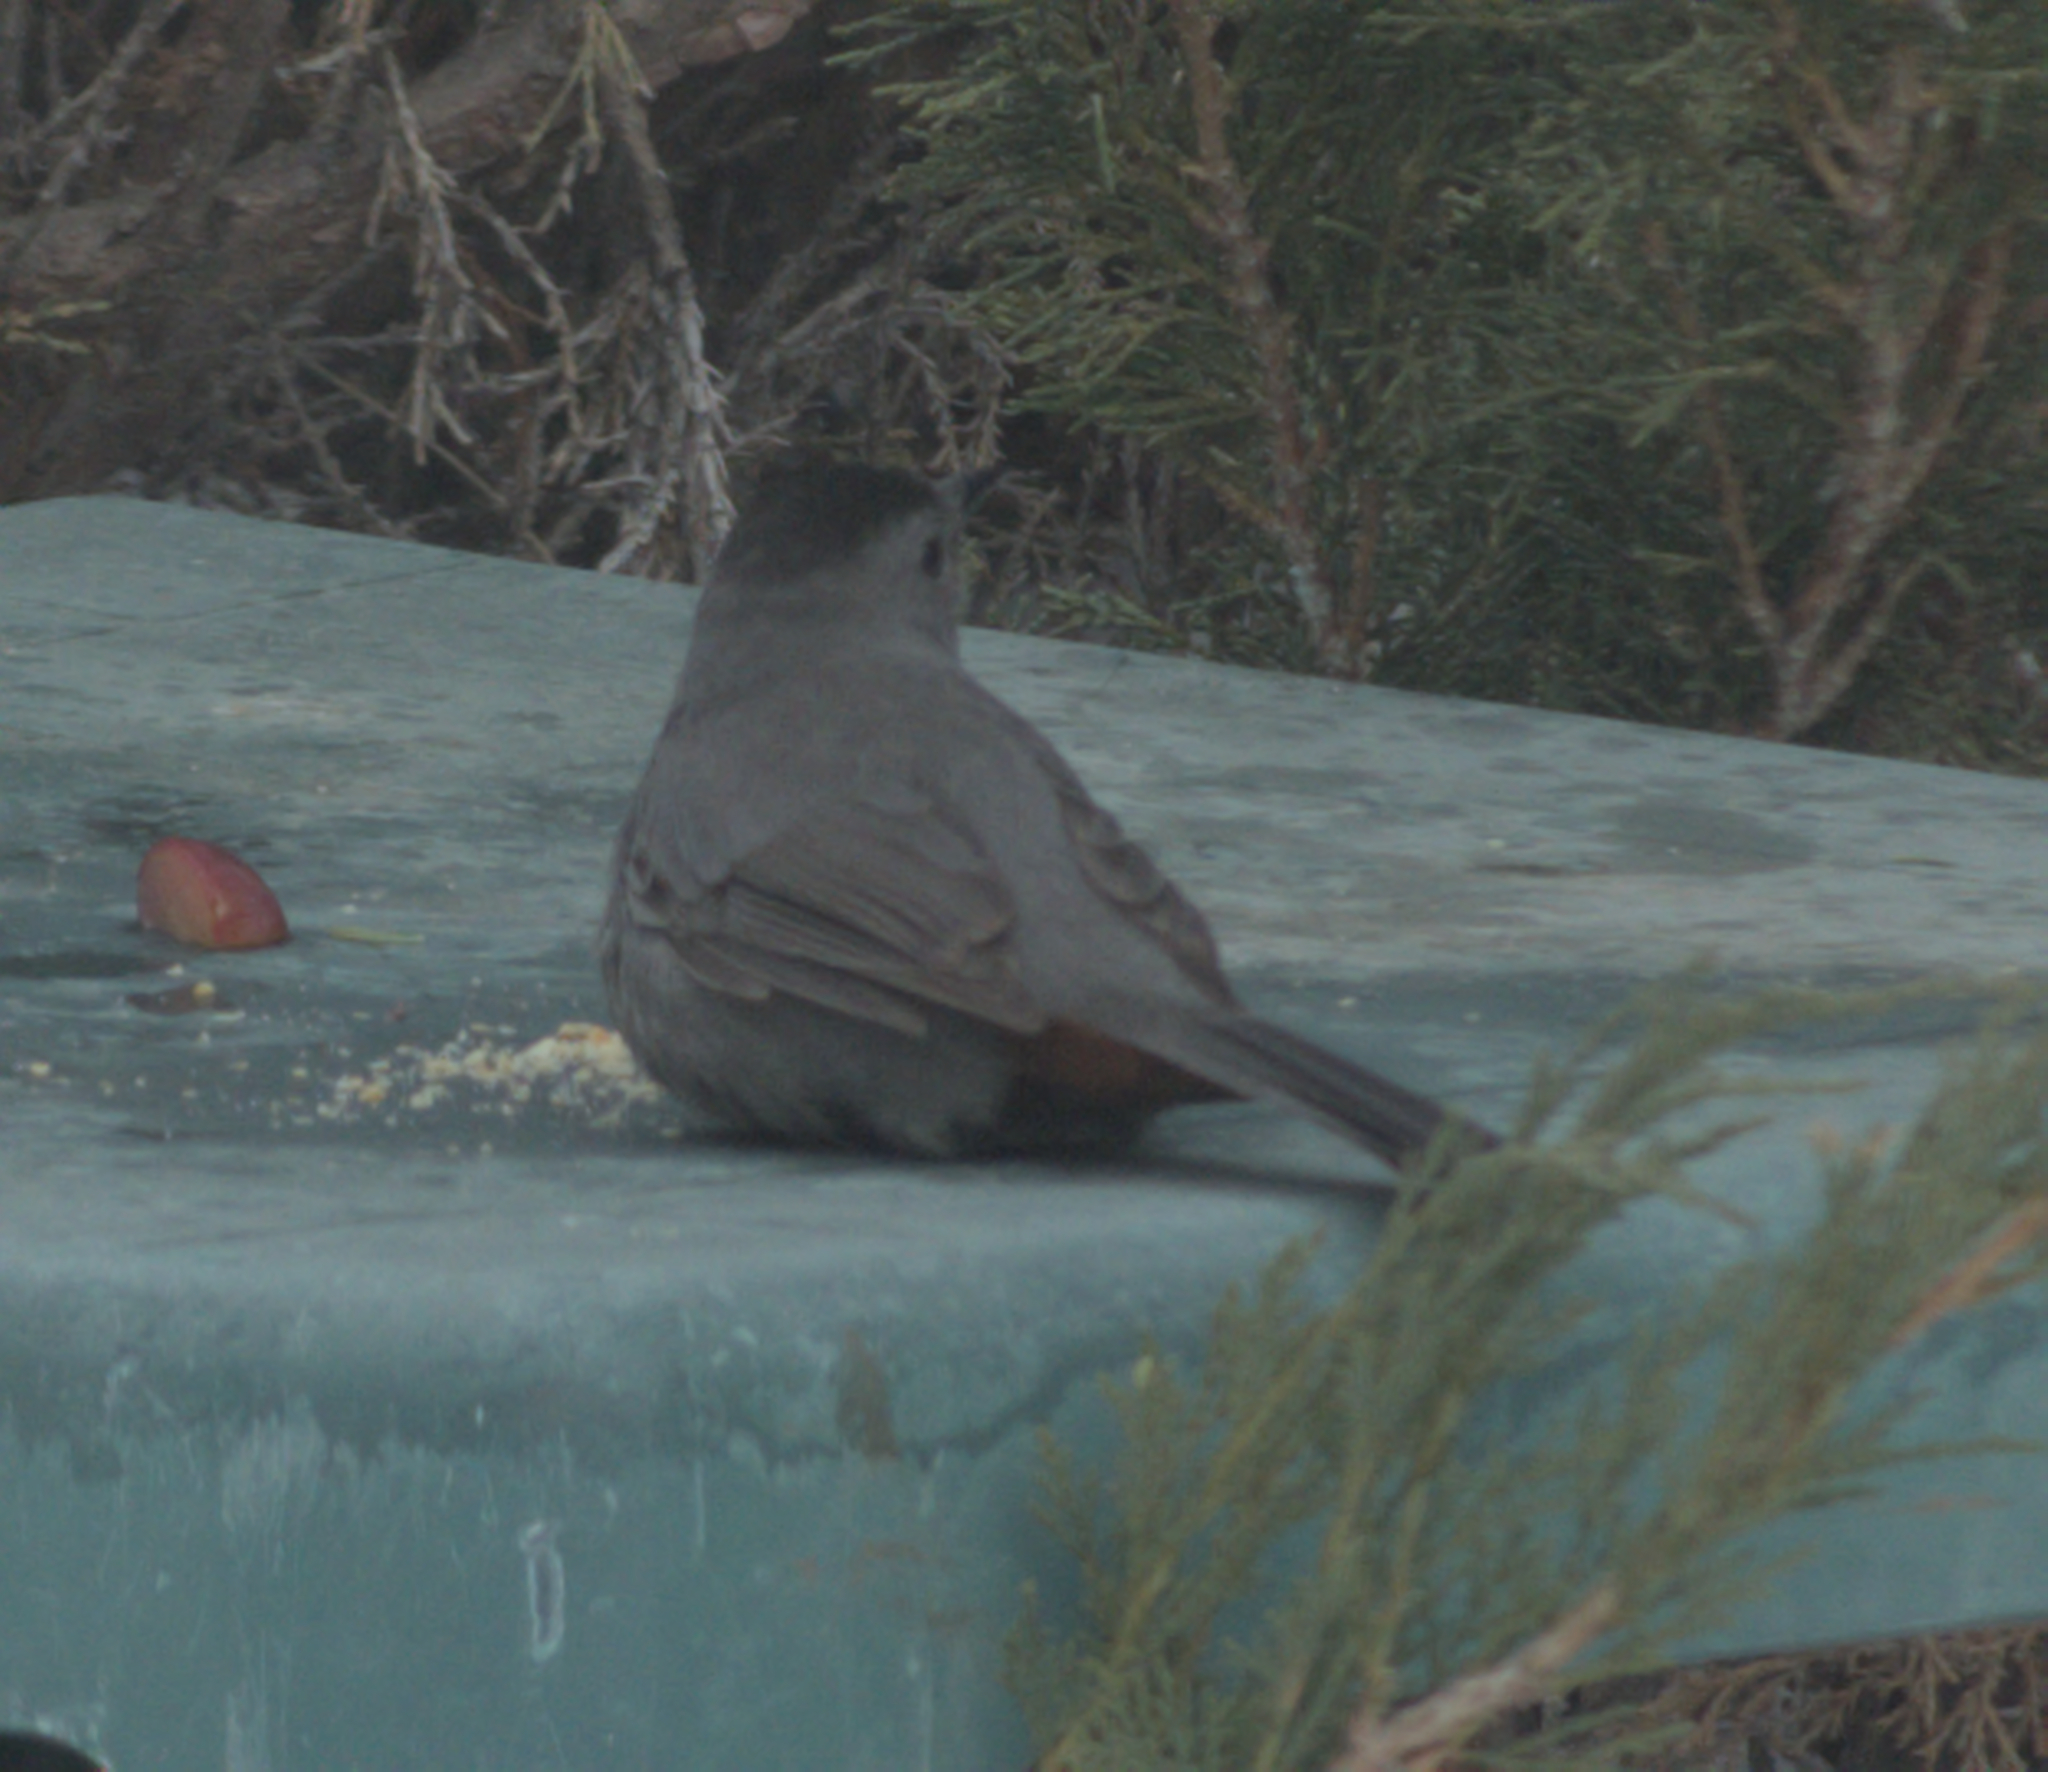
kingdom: Animalia
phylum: Chordata
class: Aves
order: Passeriformes
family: Mimidae
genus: Dumetella
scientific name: Dumetella carolinensis
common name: Gray catbird
